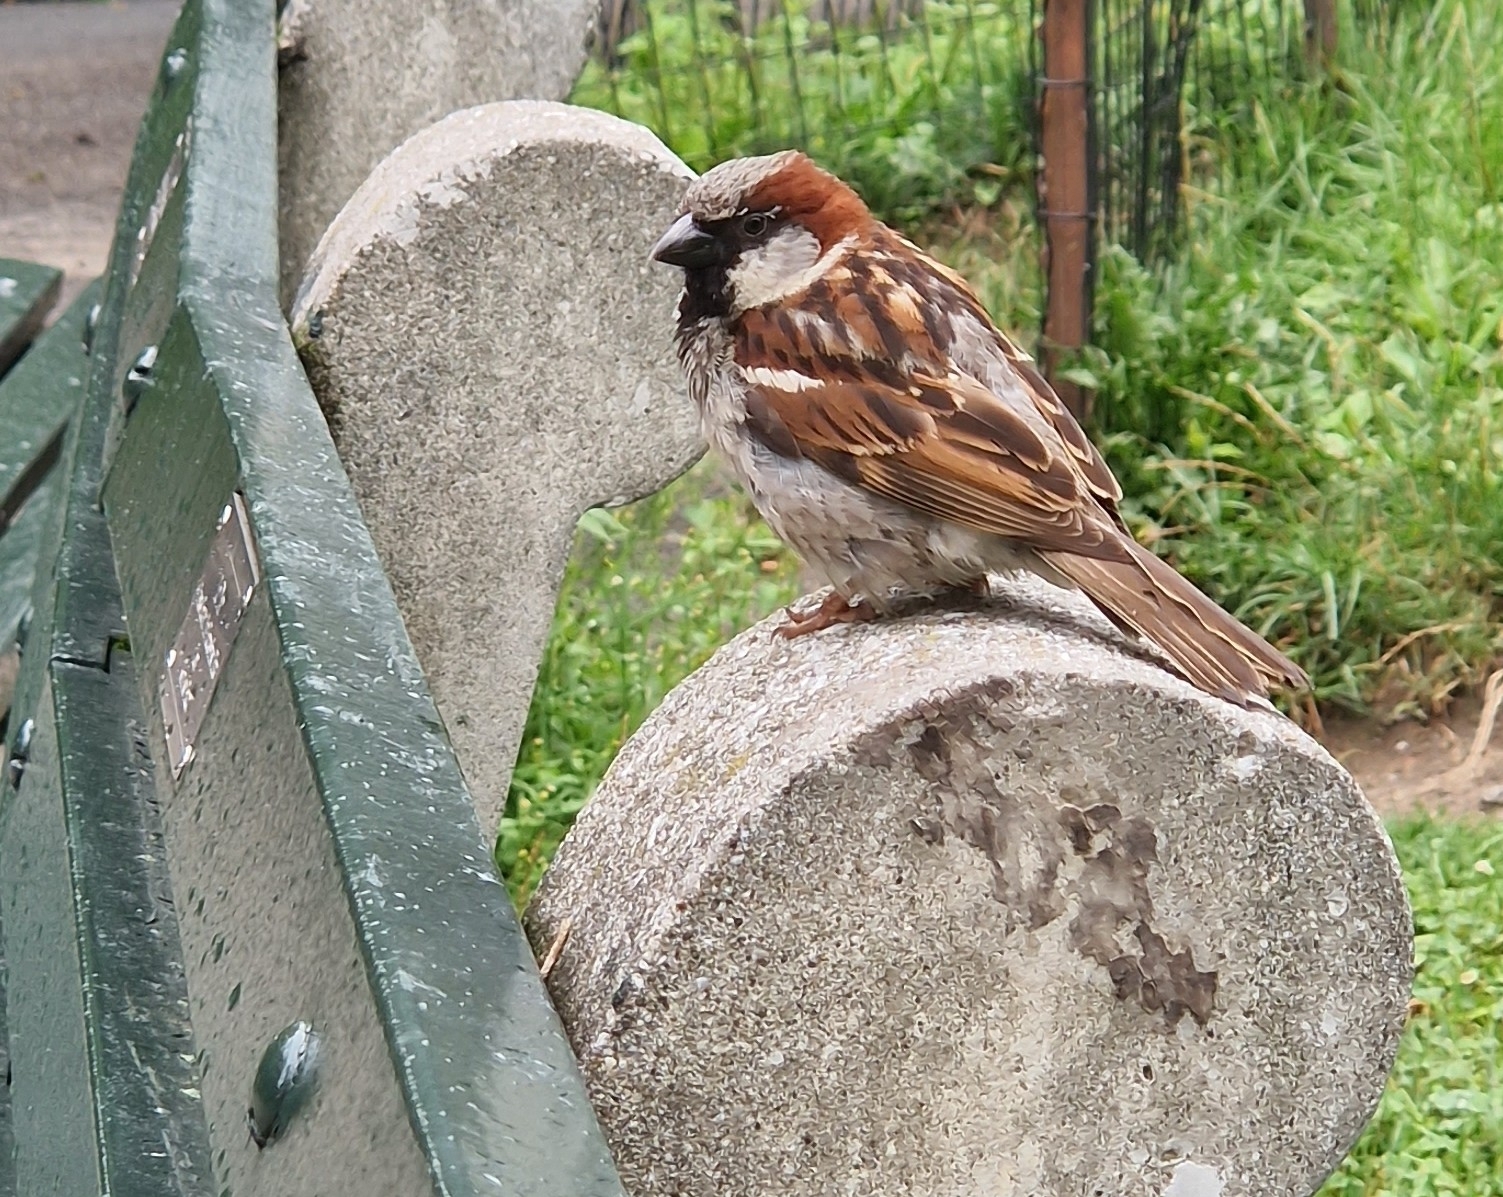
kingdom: Animalia
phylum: Chordata
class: Aves
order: Passeriformes
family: Passeridae
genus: Passer
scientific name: Passer domesticus
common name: House sparrow
